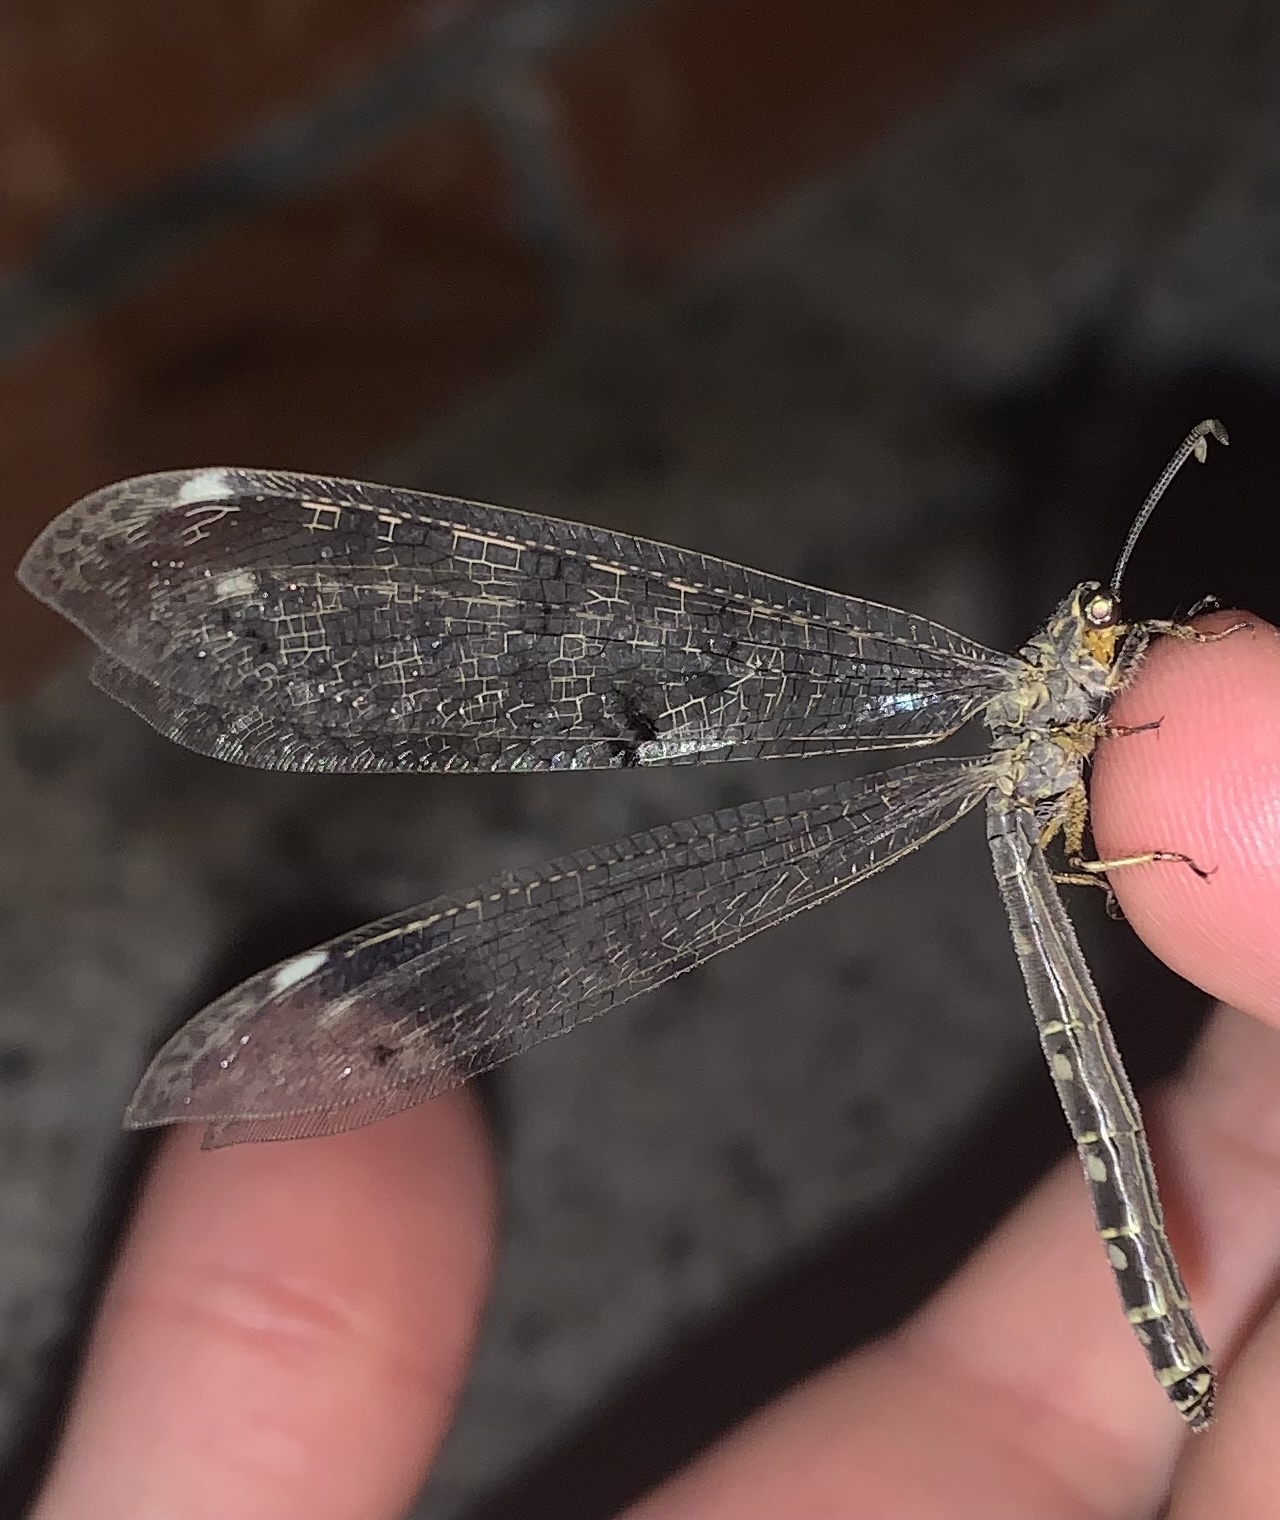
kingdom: Animalia
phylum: Arthropoda
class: Insecta
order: Neuroptera
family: Myrmeleontidae
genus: Distoleon
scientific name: Distoleon tetragrammicus
